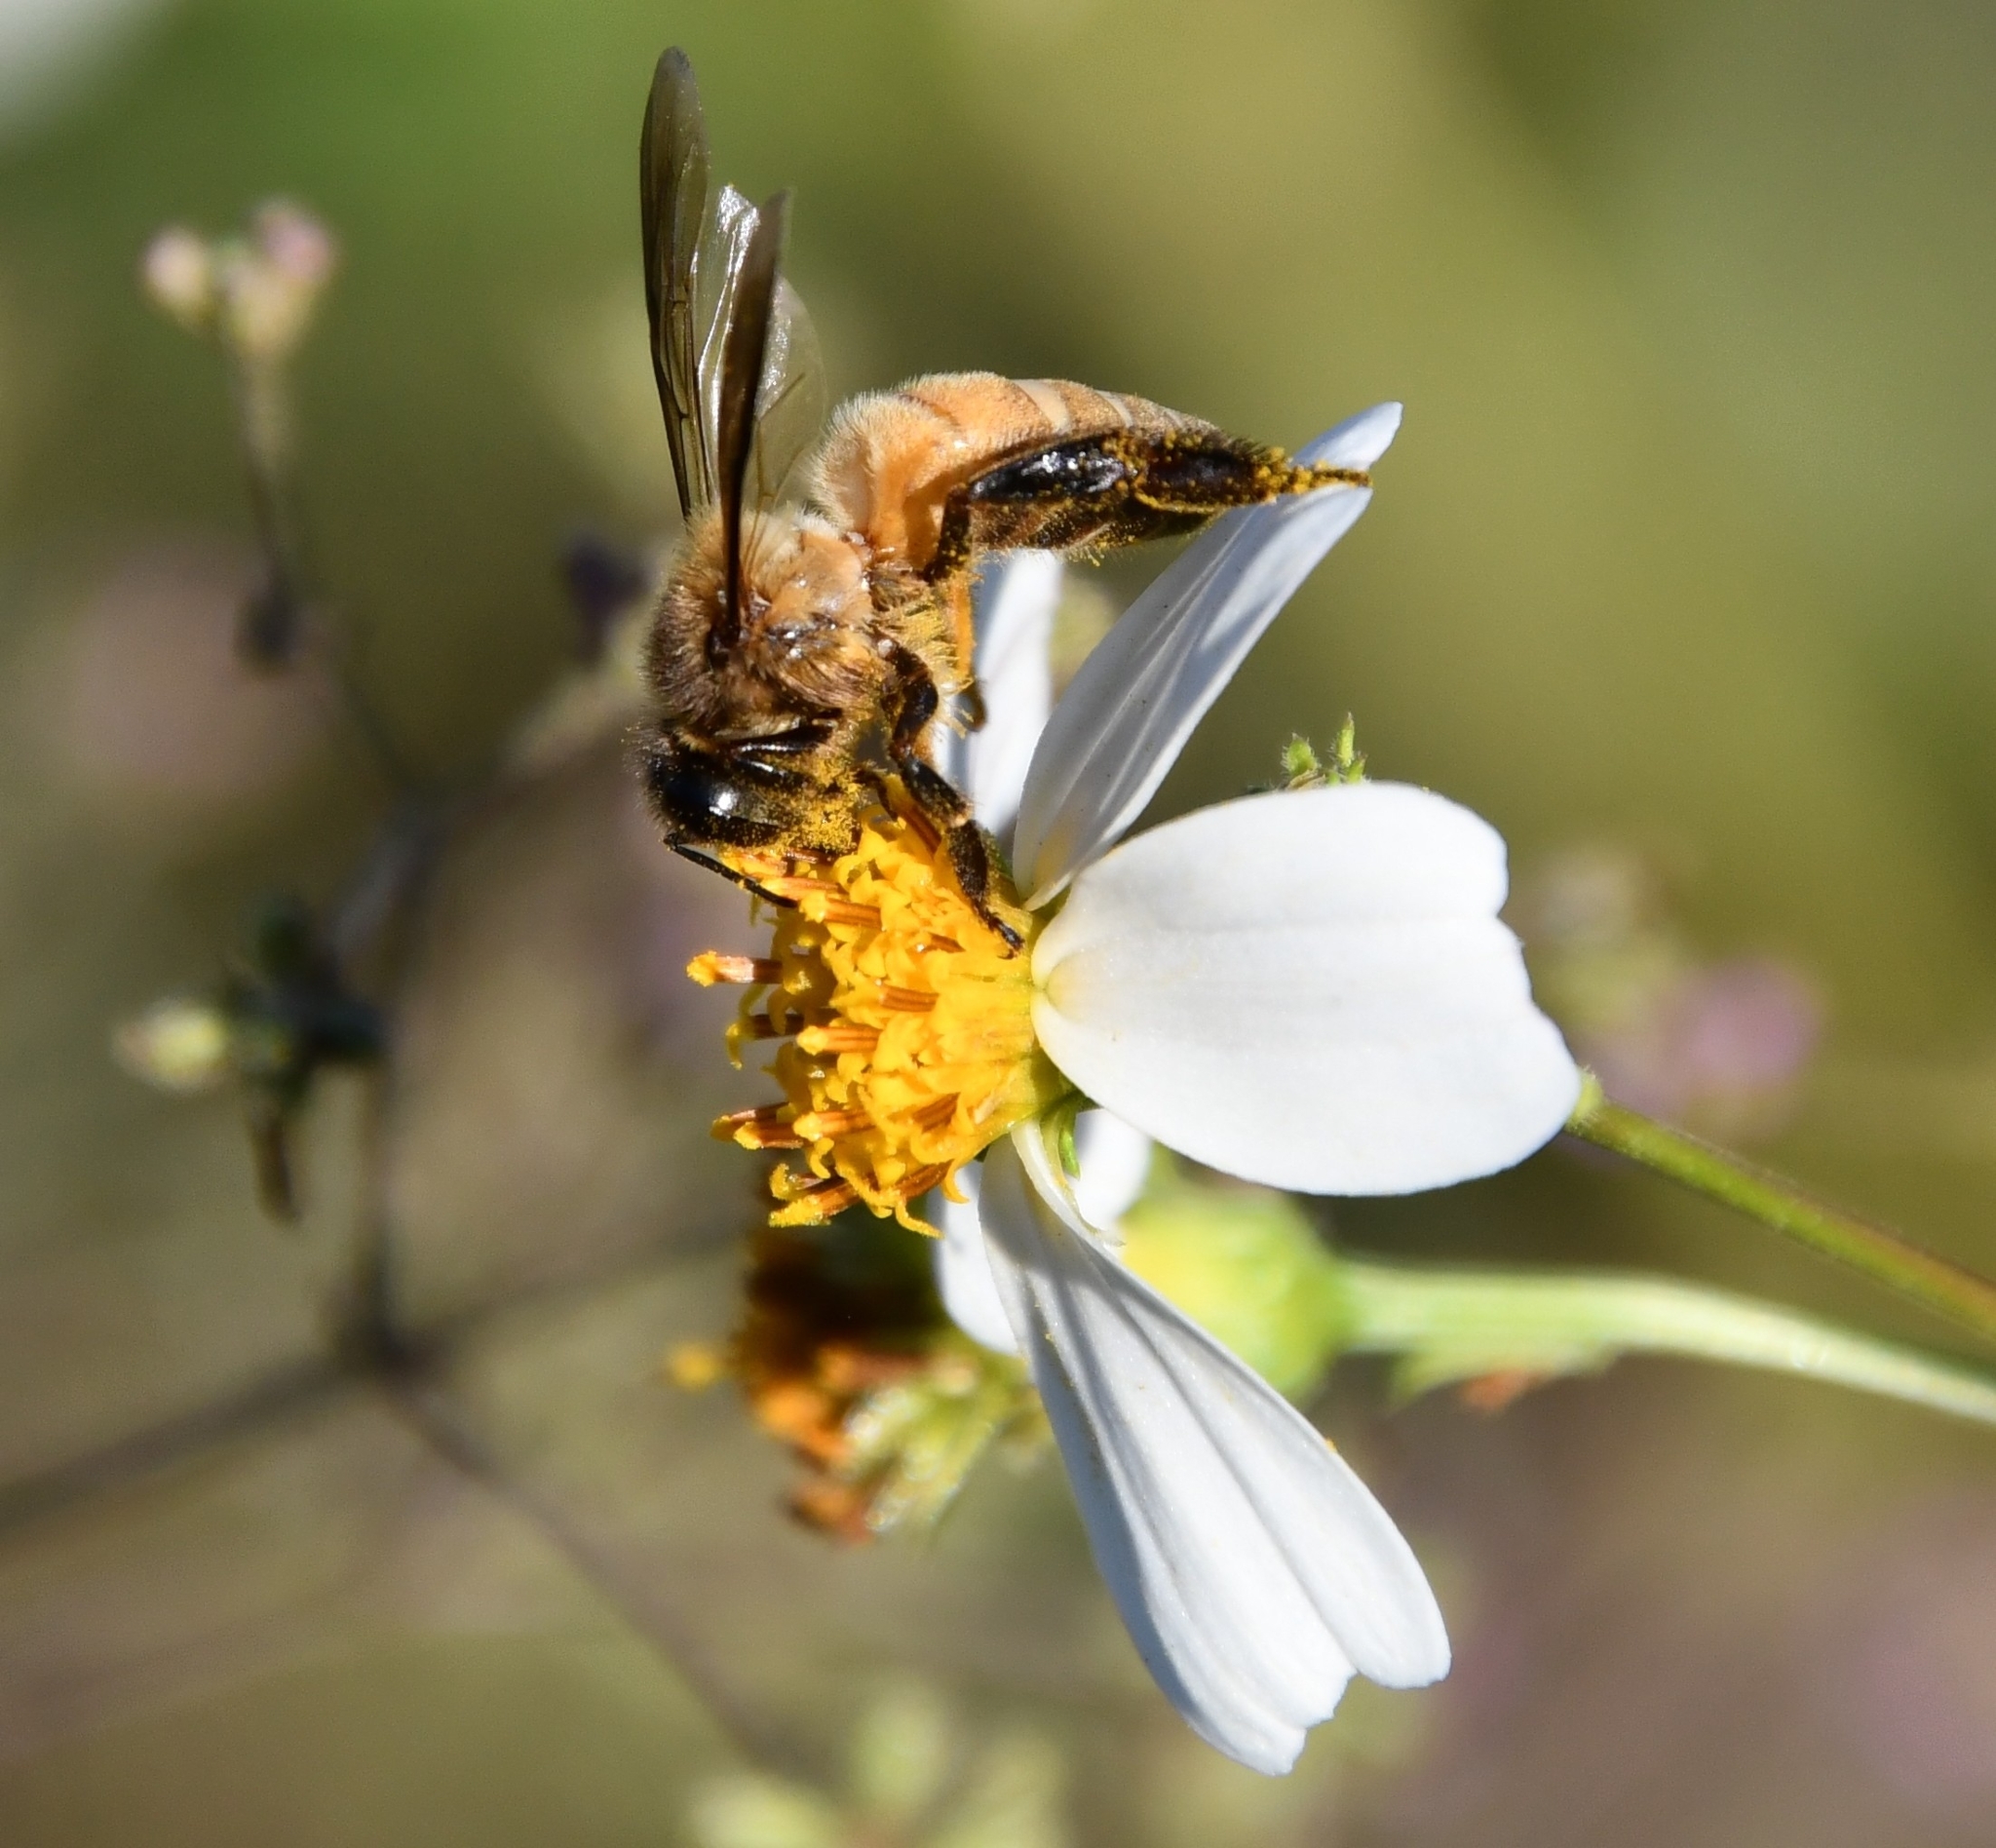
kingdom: Animalia
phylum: Arthropoda
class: Insecta
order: Hymenoptera
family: Apidae
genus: Apis
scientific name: Apis dorsata
